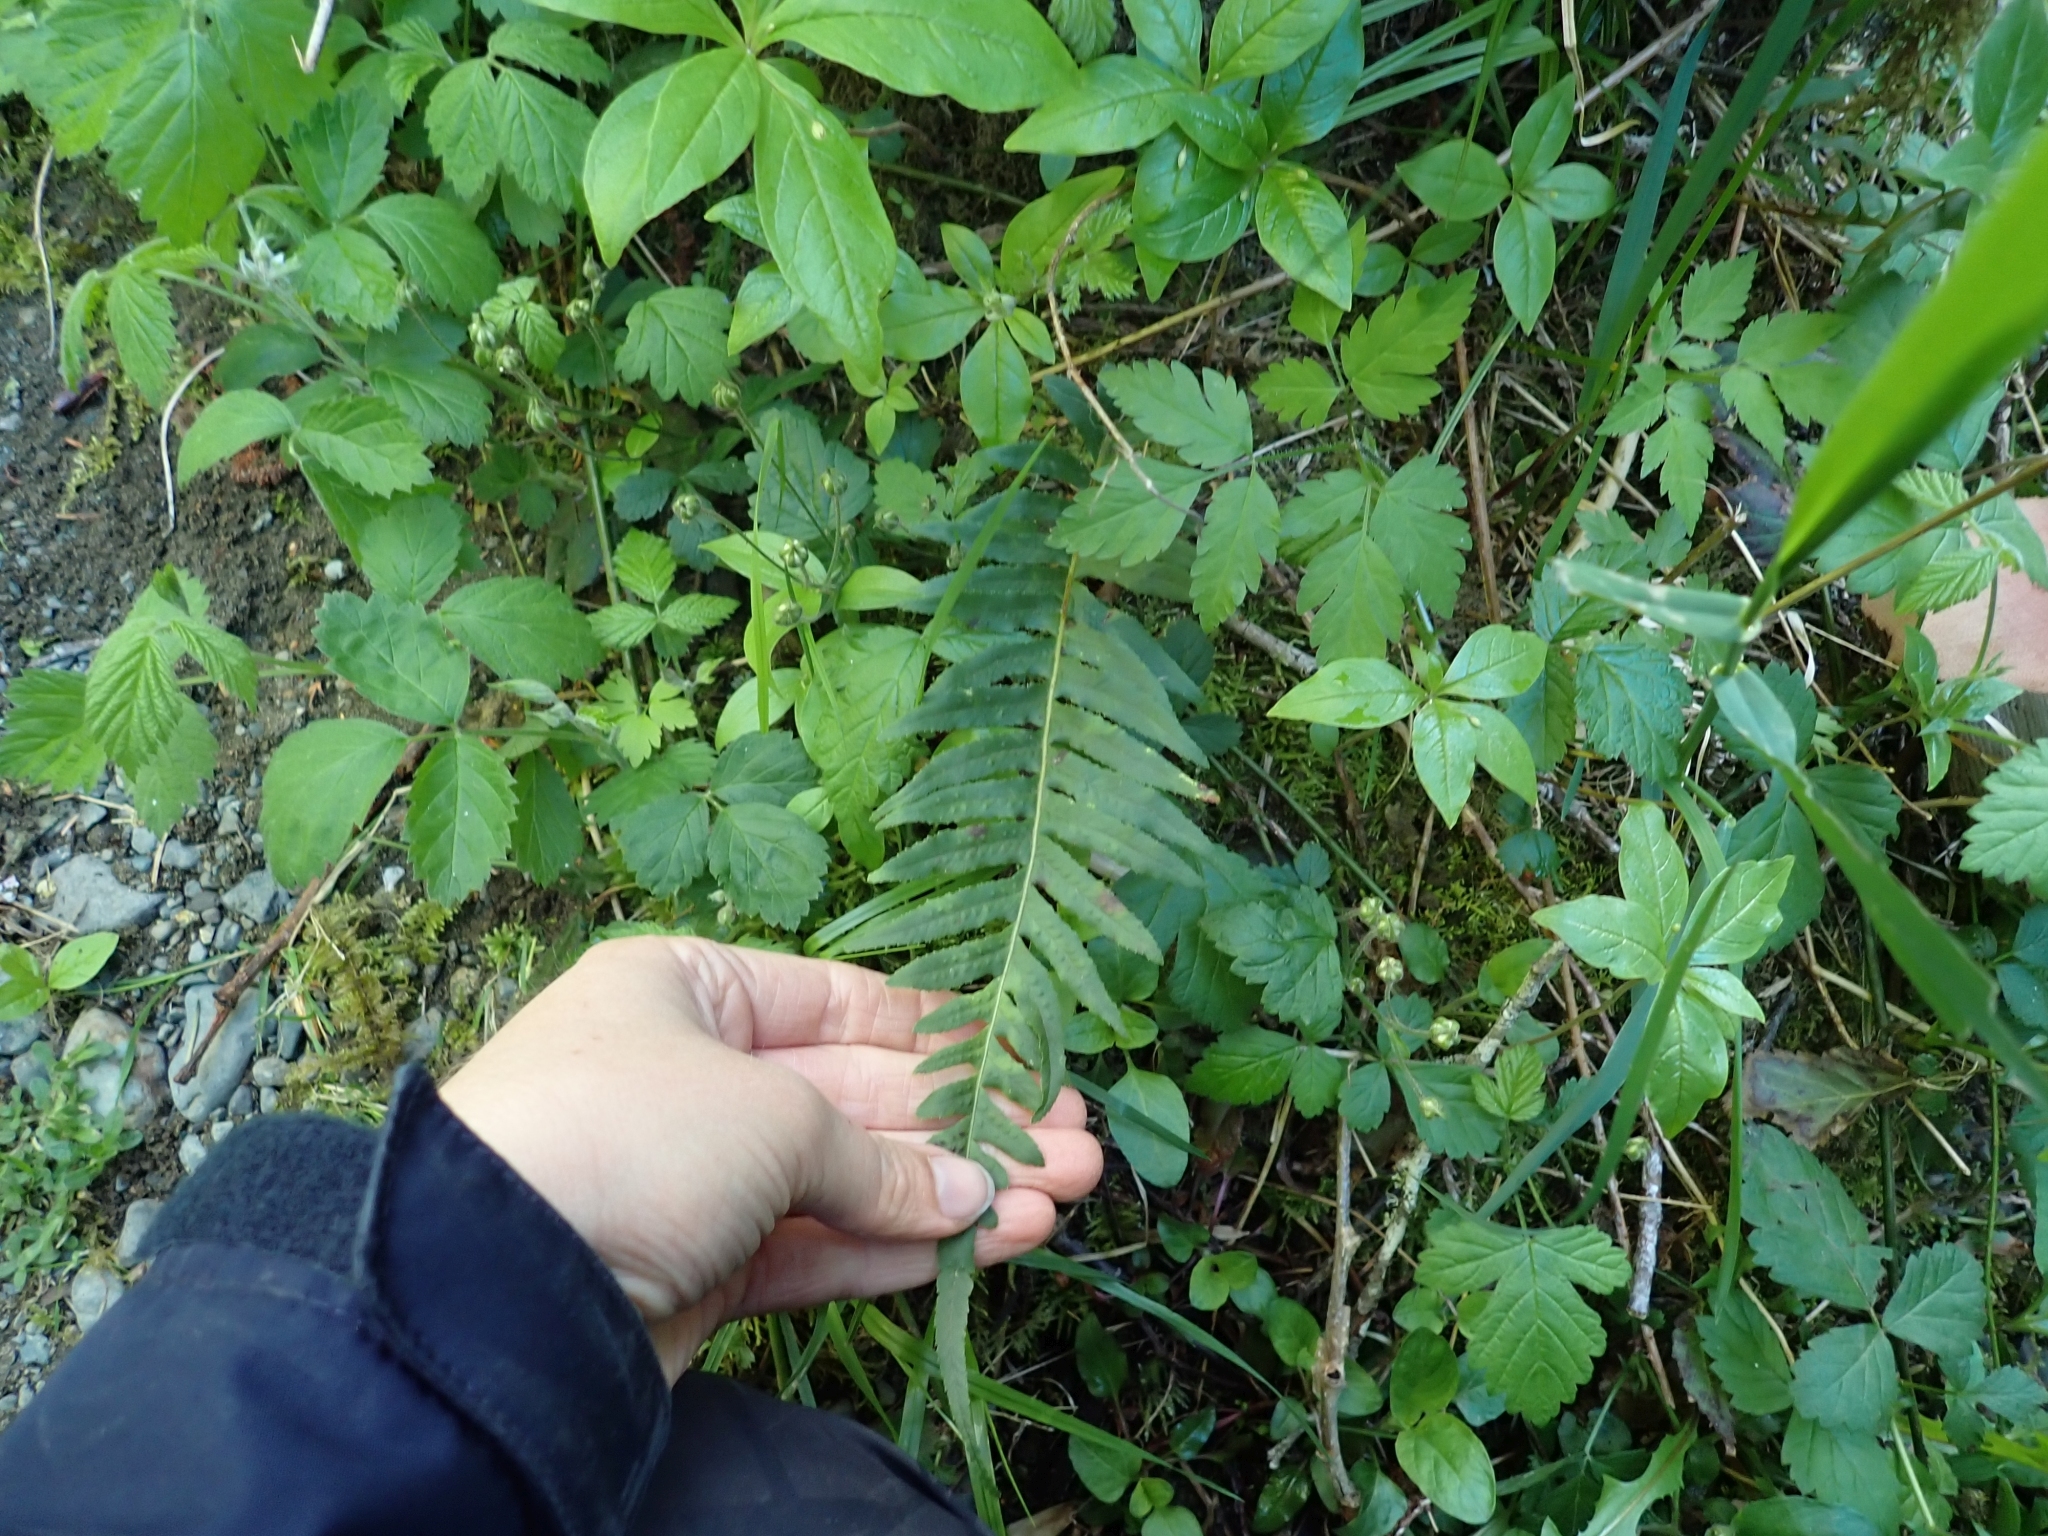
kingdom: Plantae
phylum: Tracheophyta
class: Polypodiopsida
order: Polypodiales
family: Polypodiaceae
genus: Polypodium
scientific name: Polypodium glycyrrhiza
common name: Licorice fern
